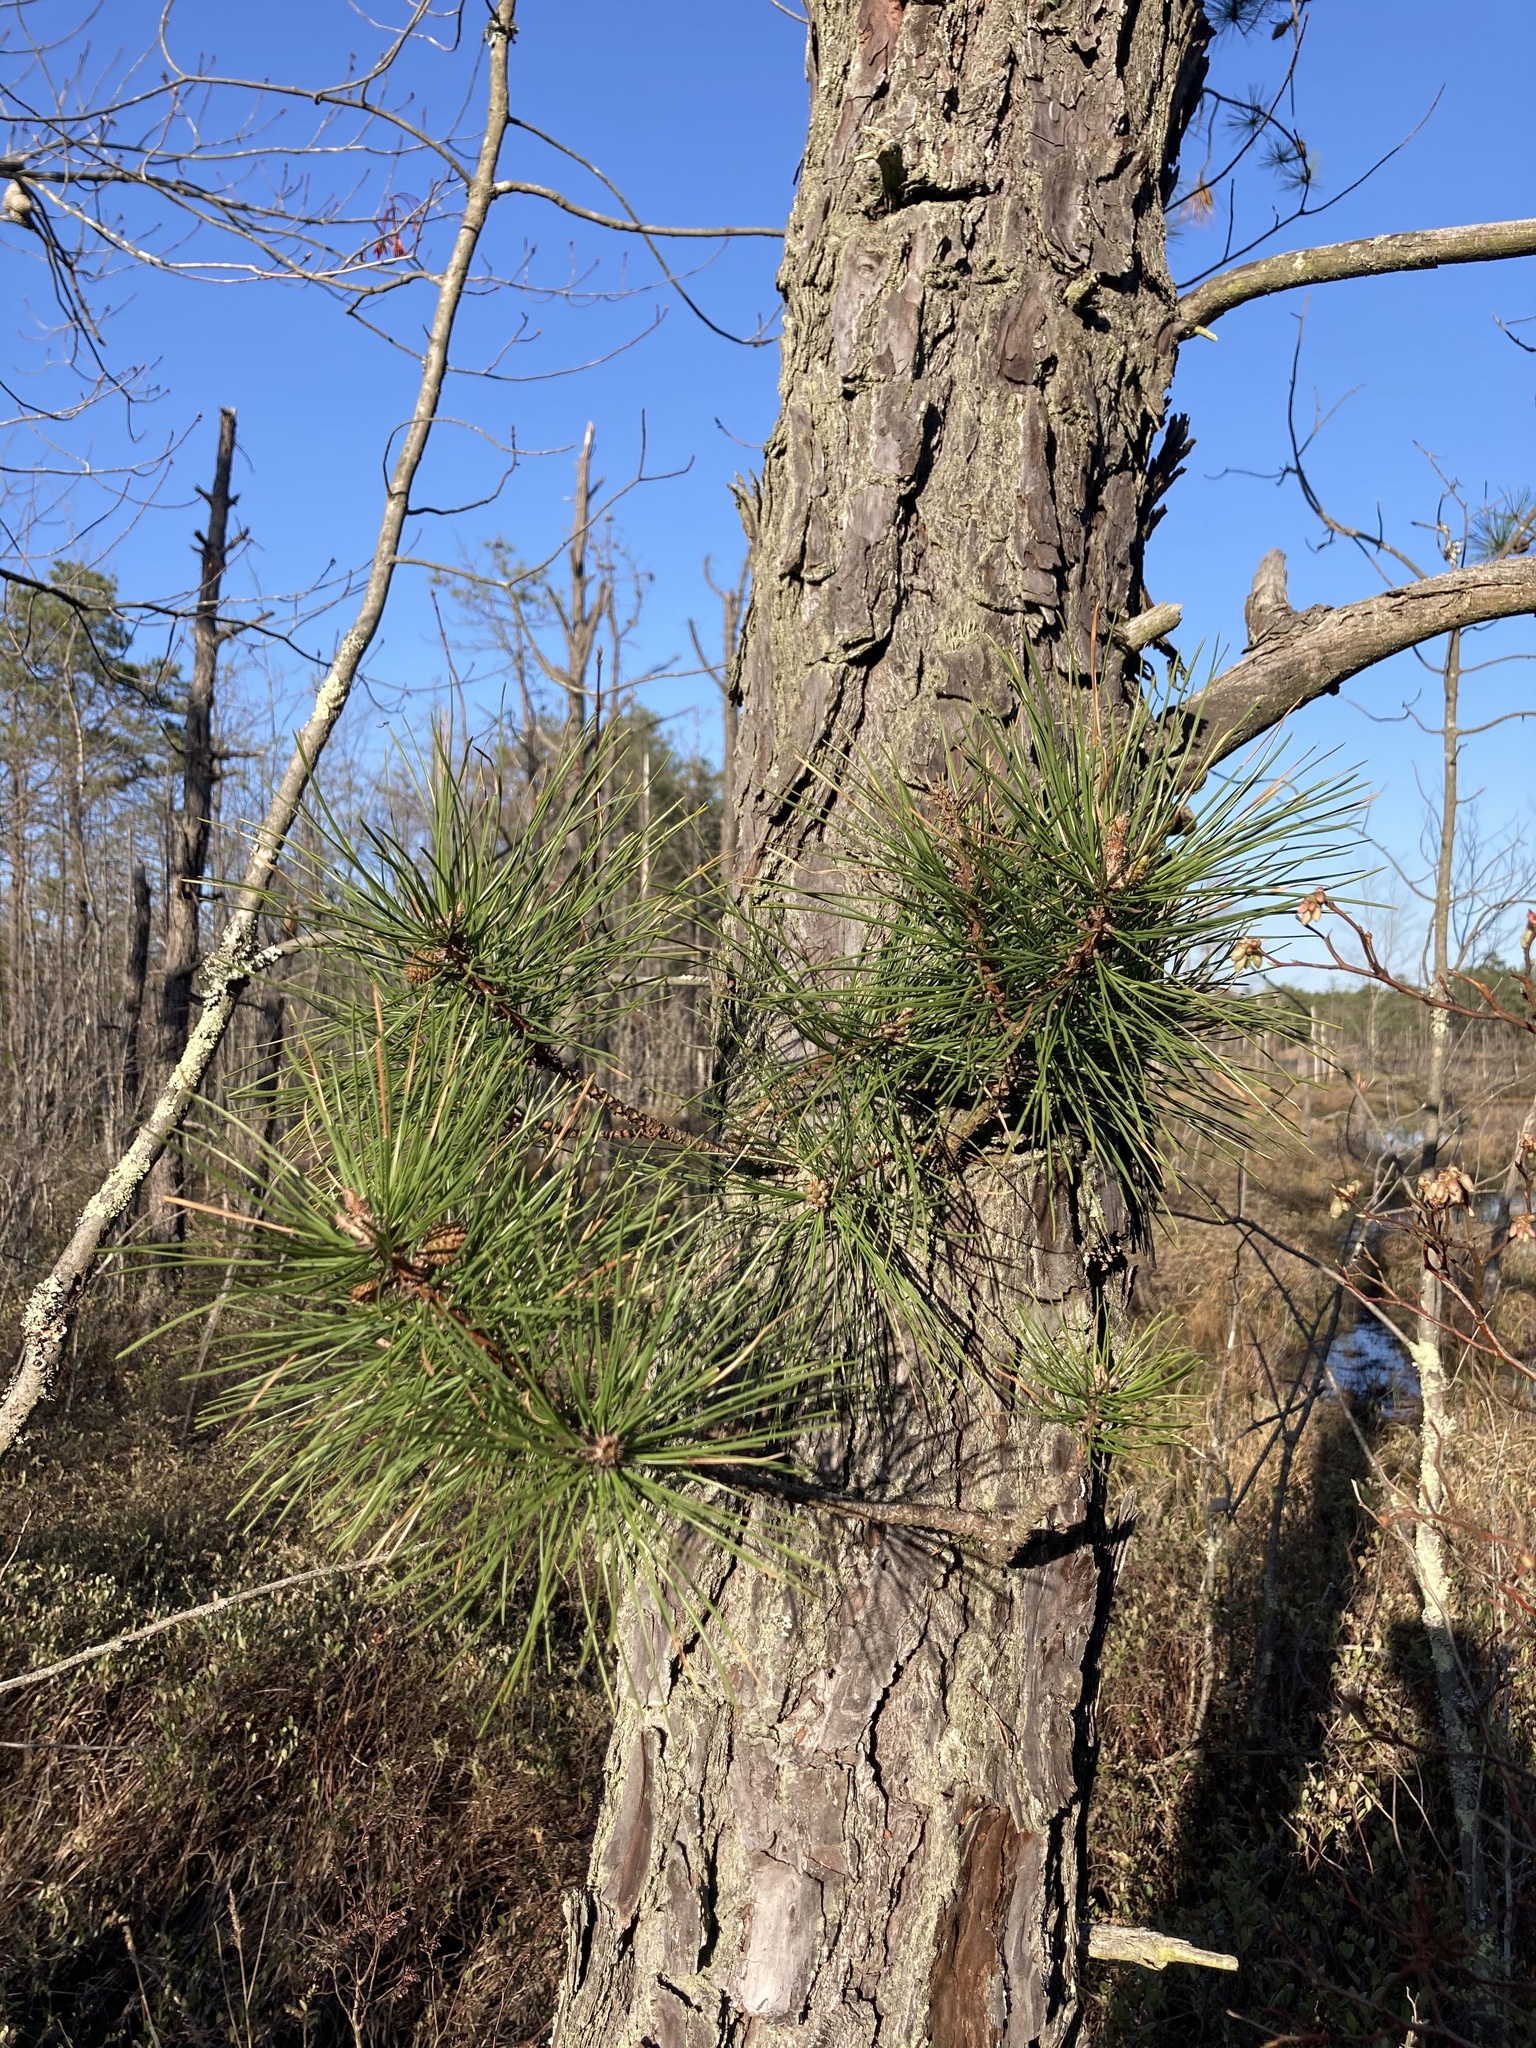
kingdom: Plantae
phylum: Tracheophyta
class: Pinopsida
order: Pinales
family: Pinaceae
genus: Pinus
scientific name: Pinus rigida
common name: Pitch pine
